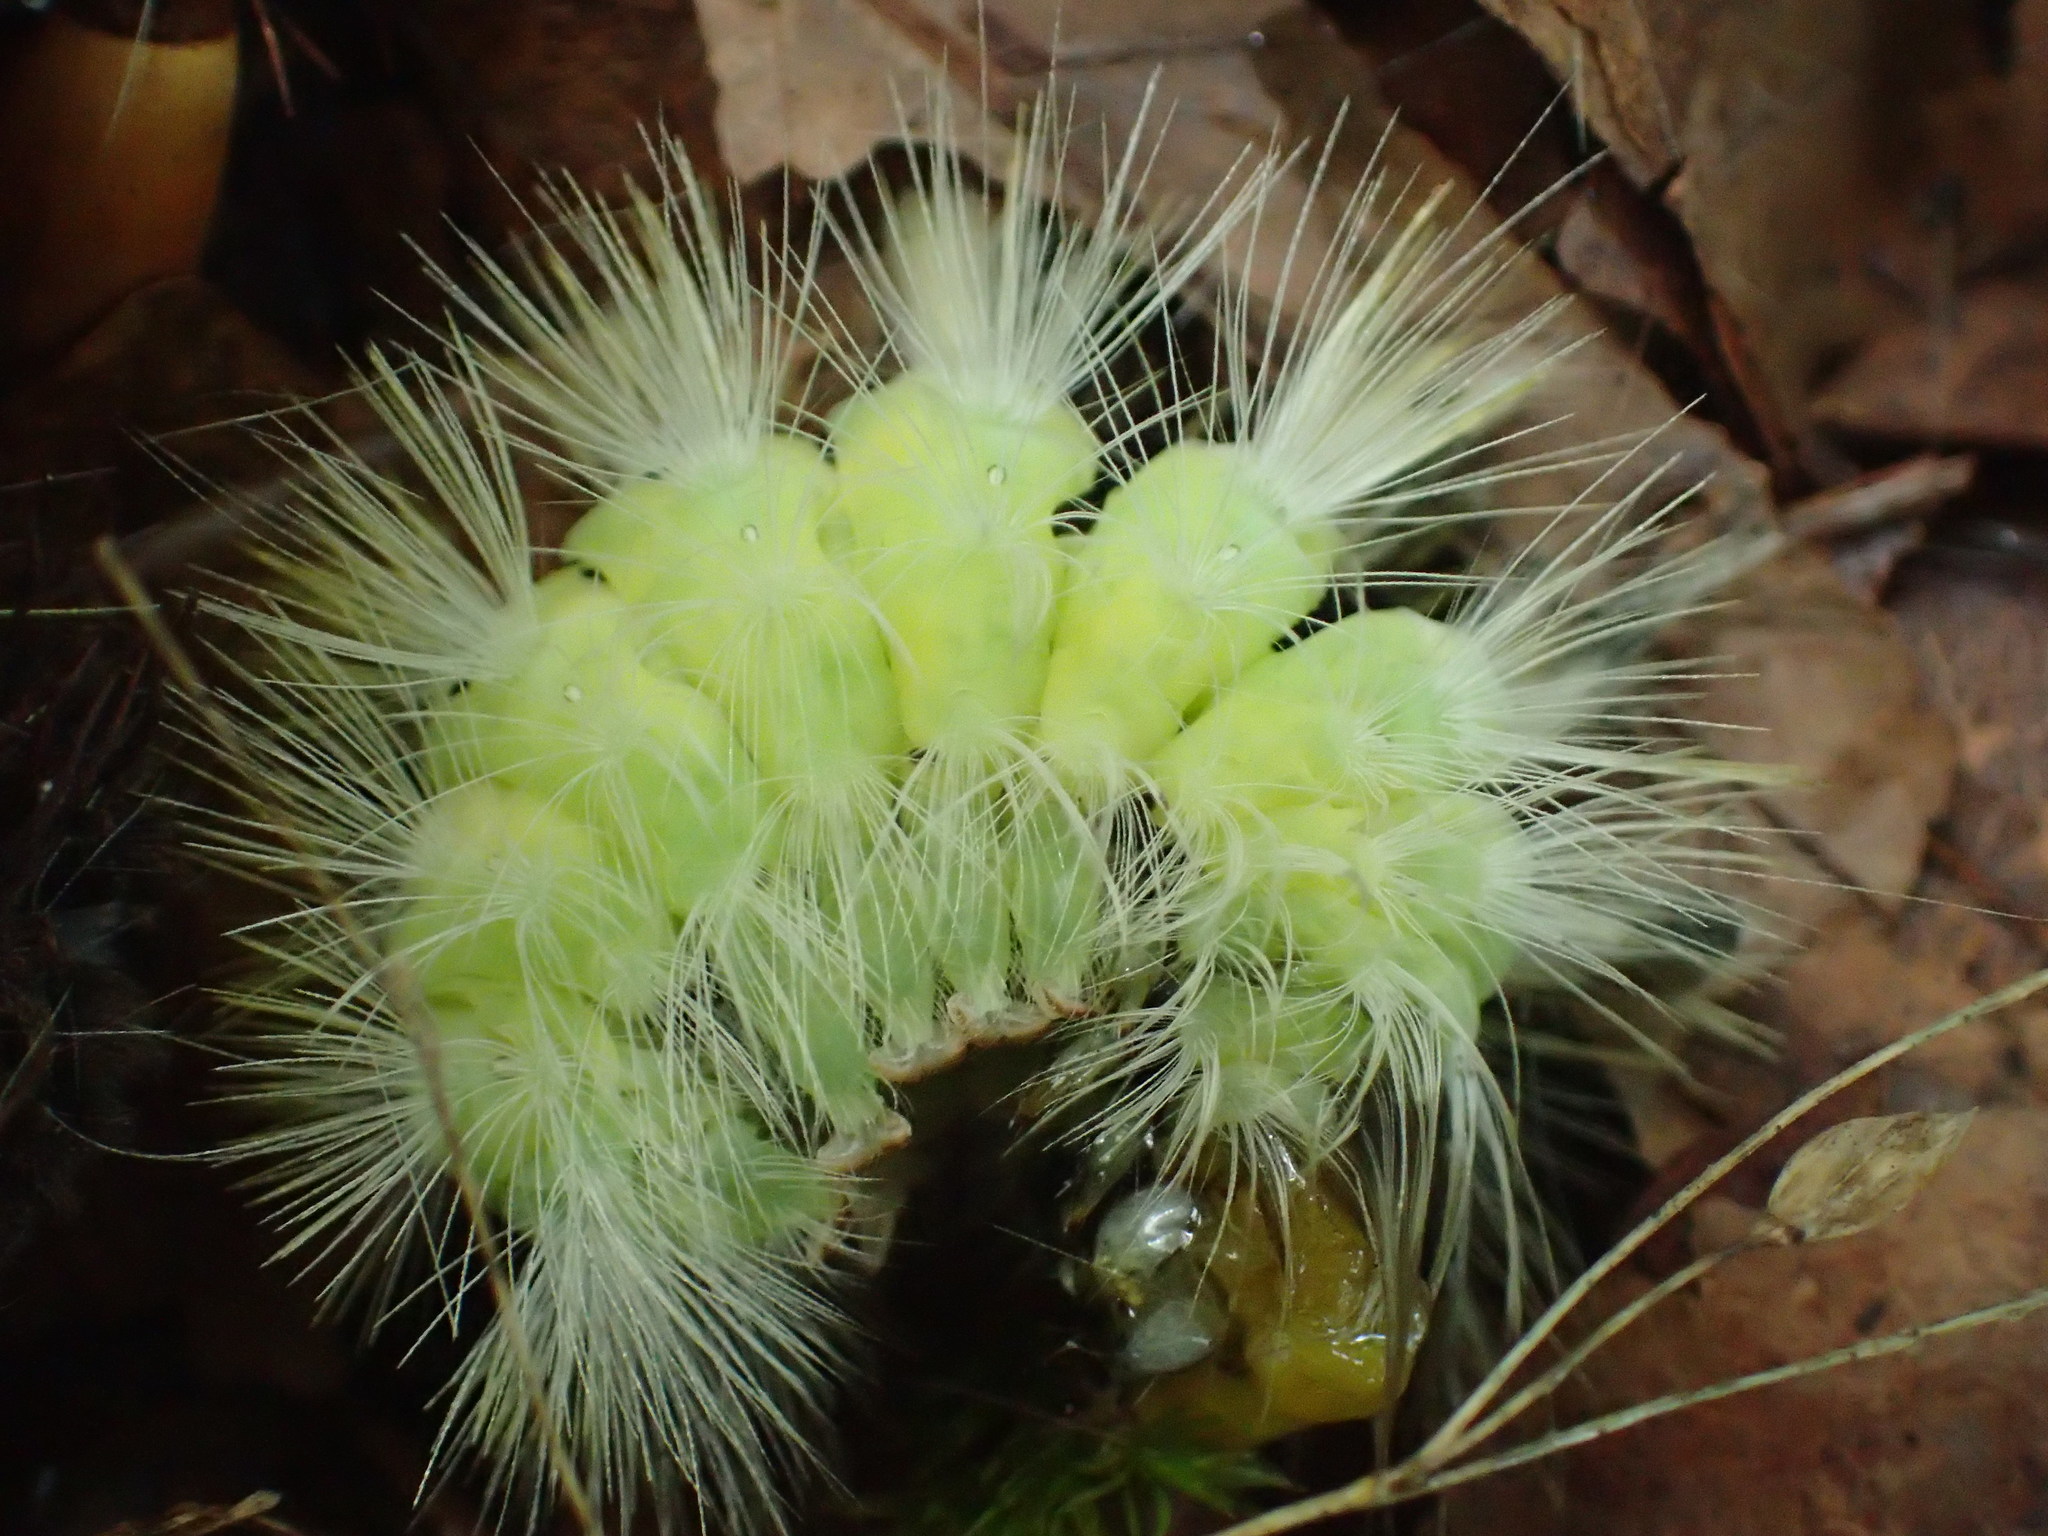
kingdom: Animalia
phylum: Arthropoda
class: Insecta
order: Lepidoptera
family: Erebidae
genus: Calliteara
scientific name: Calliteara pudibunda
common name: Pale tussock
